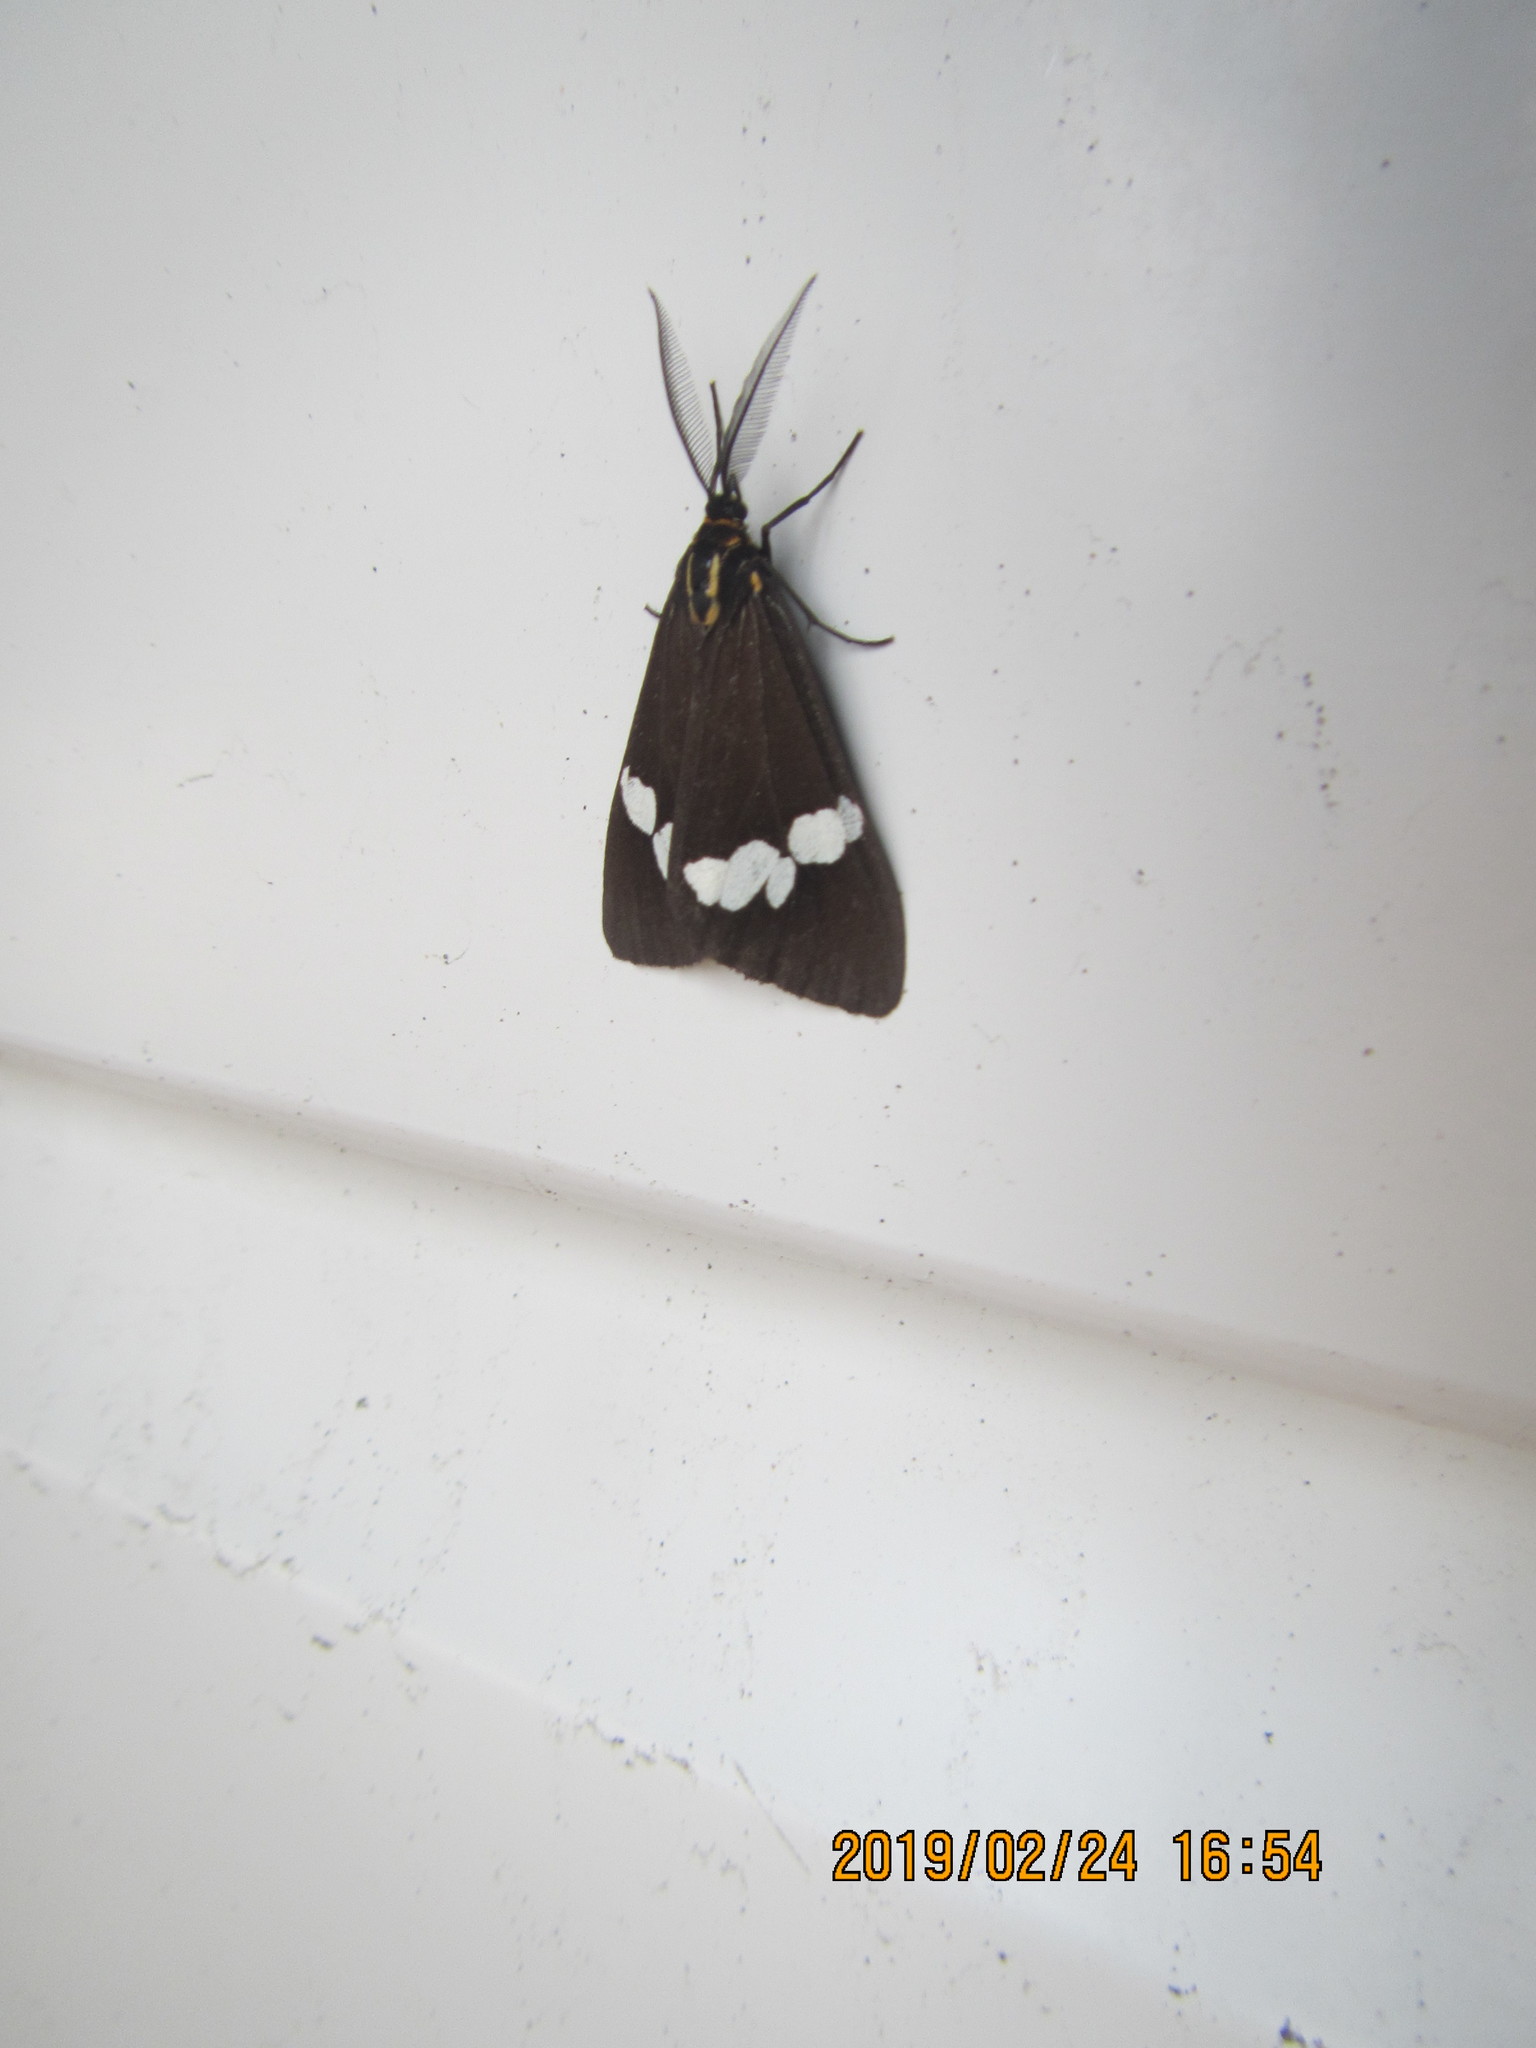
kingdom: Animalia
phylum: Arthropoda
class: Insecta
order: Lepidoptera
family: Erebidae
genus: Nyctemera
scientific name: Nyctemera annulatum
